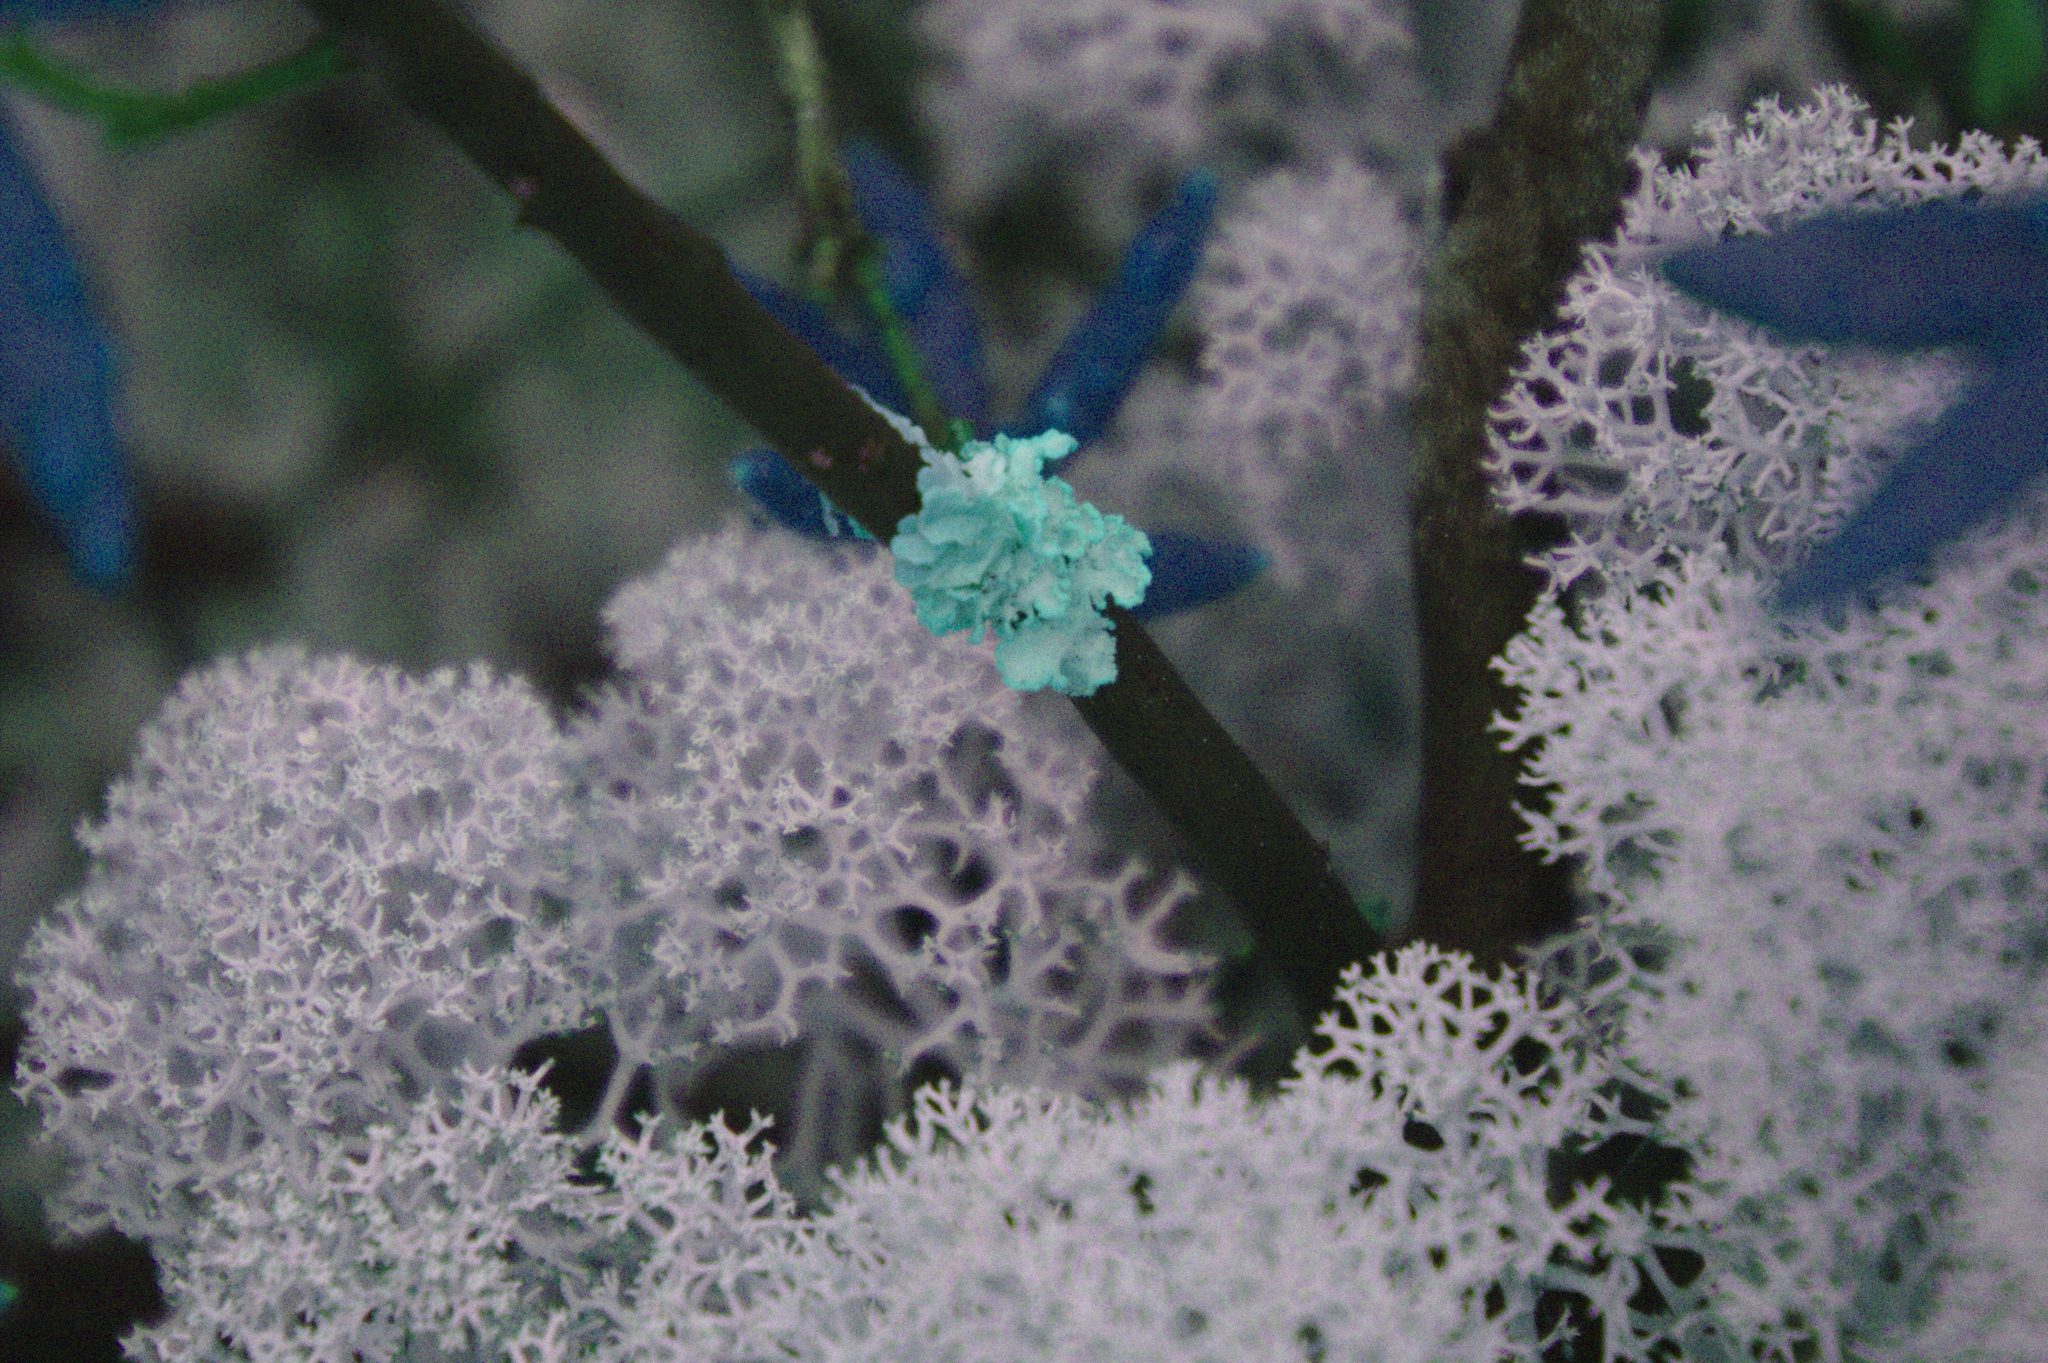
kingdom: Fungi
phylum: Ascomycota
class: Lecanoromycetes
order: Lecanorales
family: Parmeliaceae
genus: Vulpicida
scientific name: Vulpicida pinastri
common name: Powdered sunshine lichen
